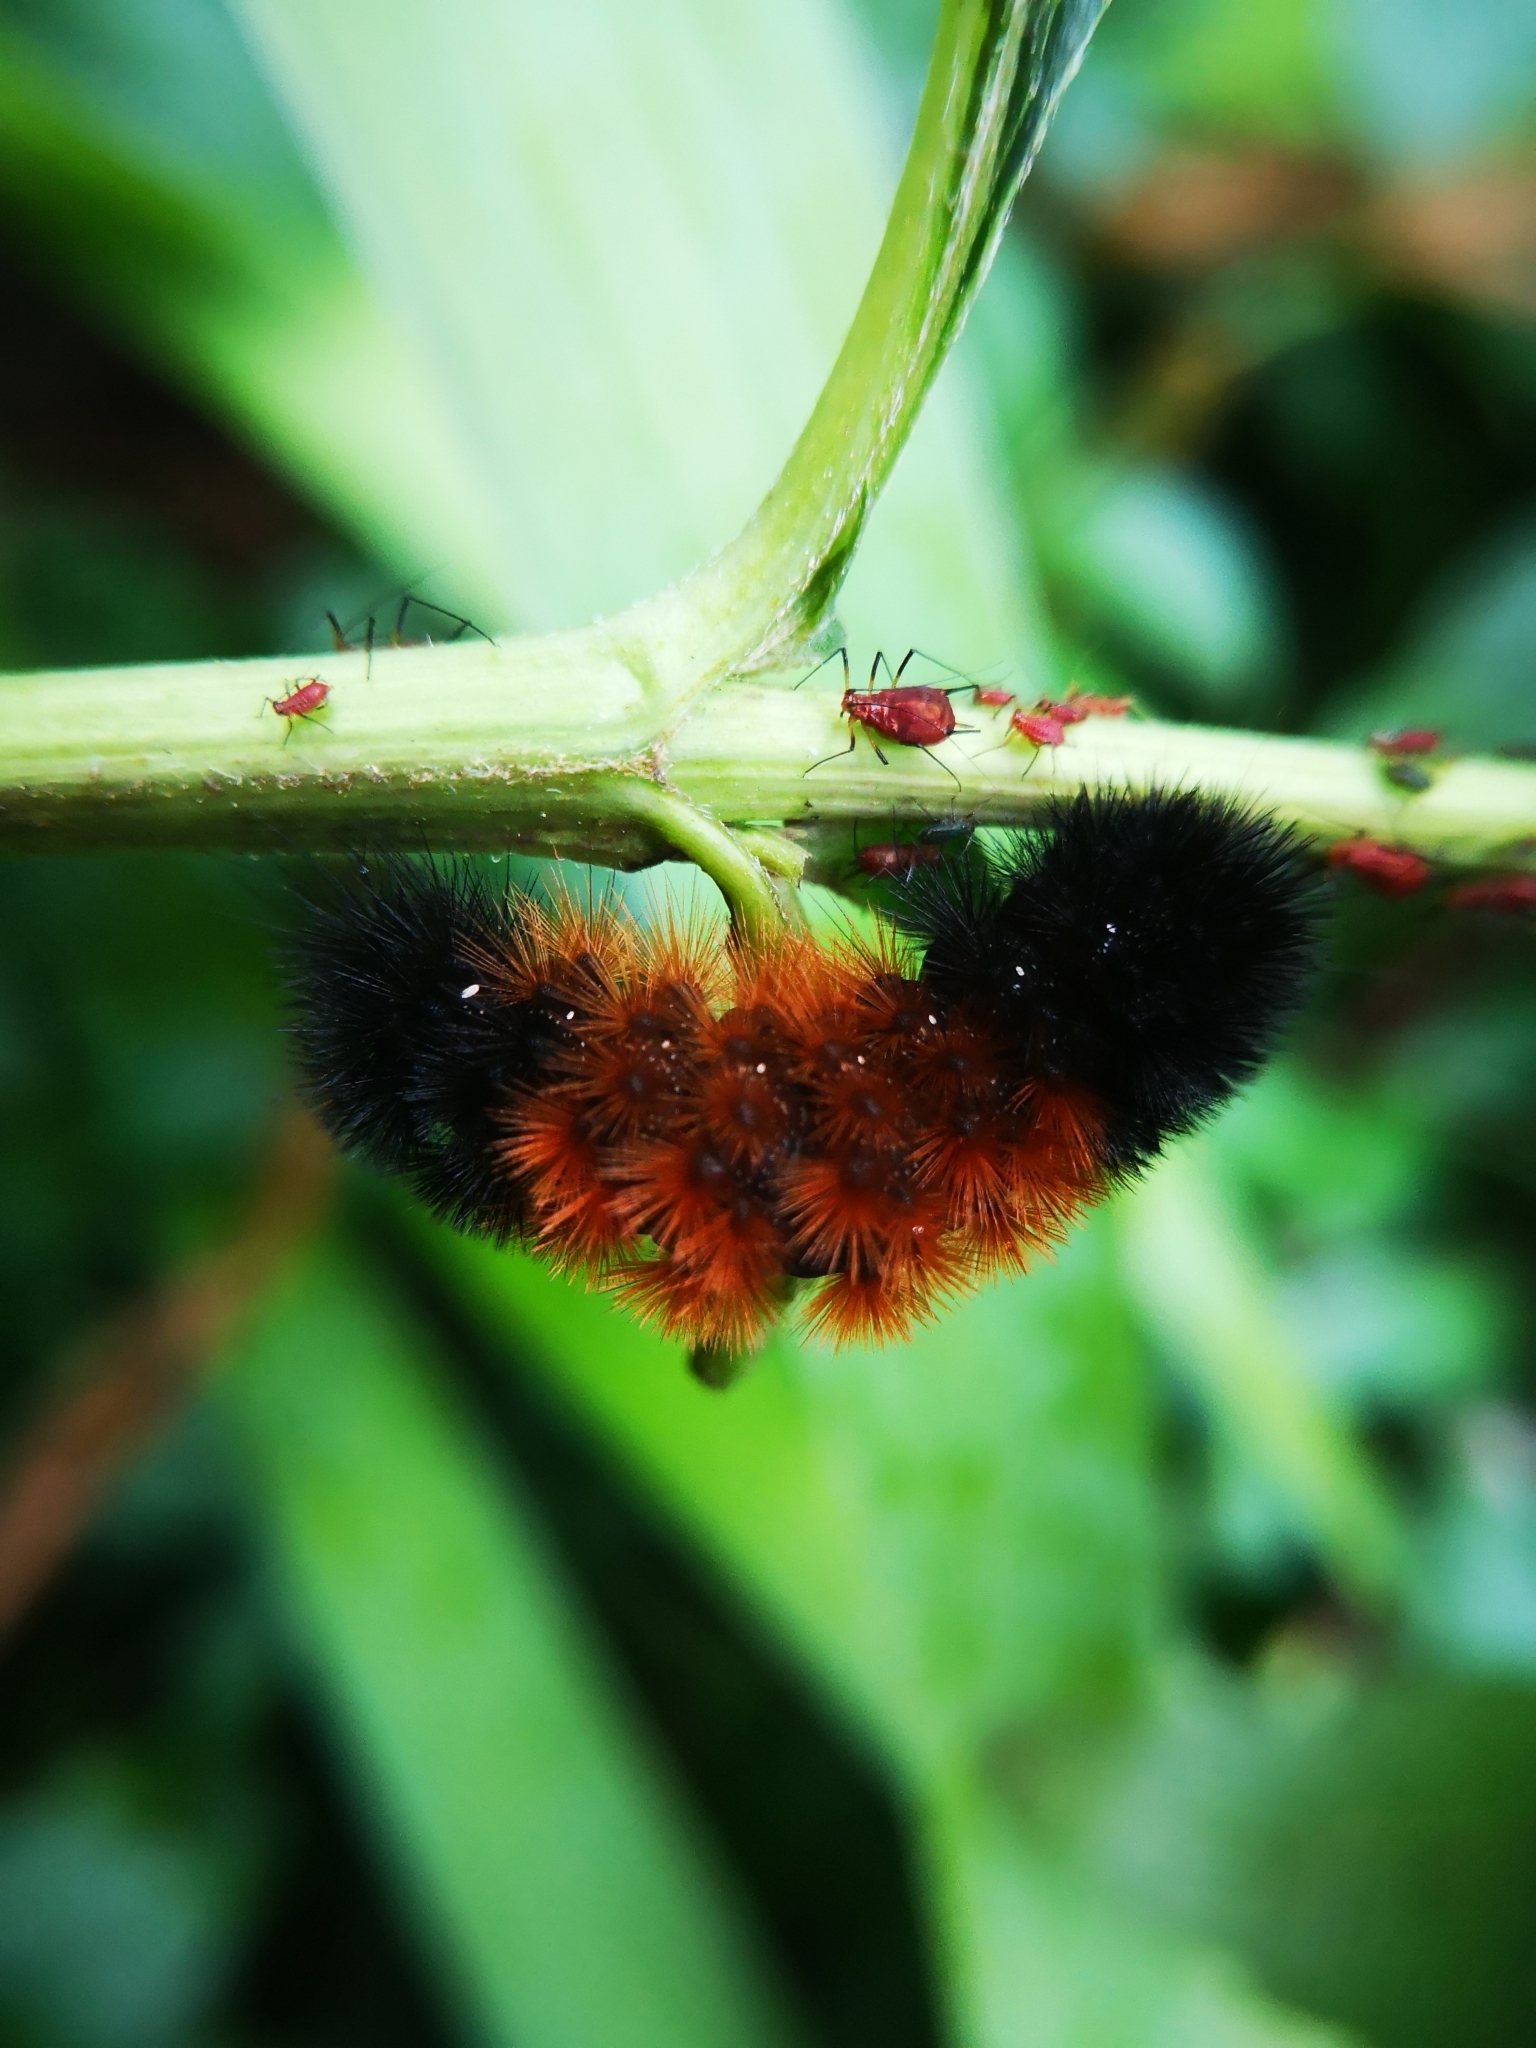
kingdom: Animalia
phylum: Arthropoda
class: Insecta
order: Lepidoptera
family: Erebidae
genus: Pyrrharctia
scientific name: Pyrrharctia isabella
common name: Isabella tiger moth
